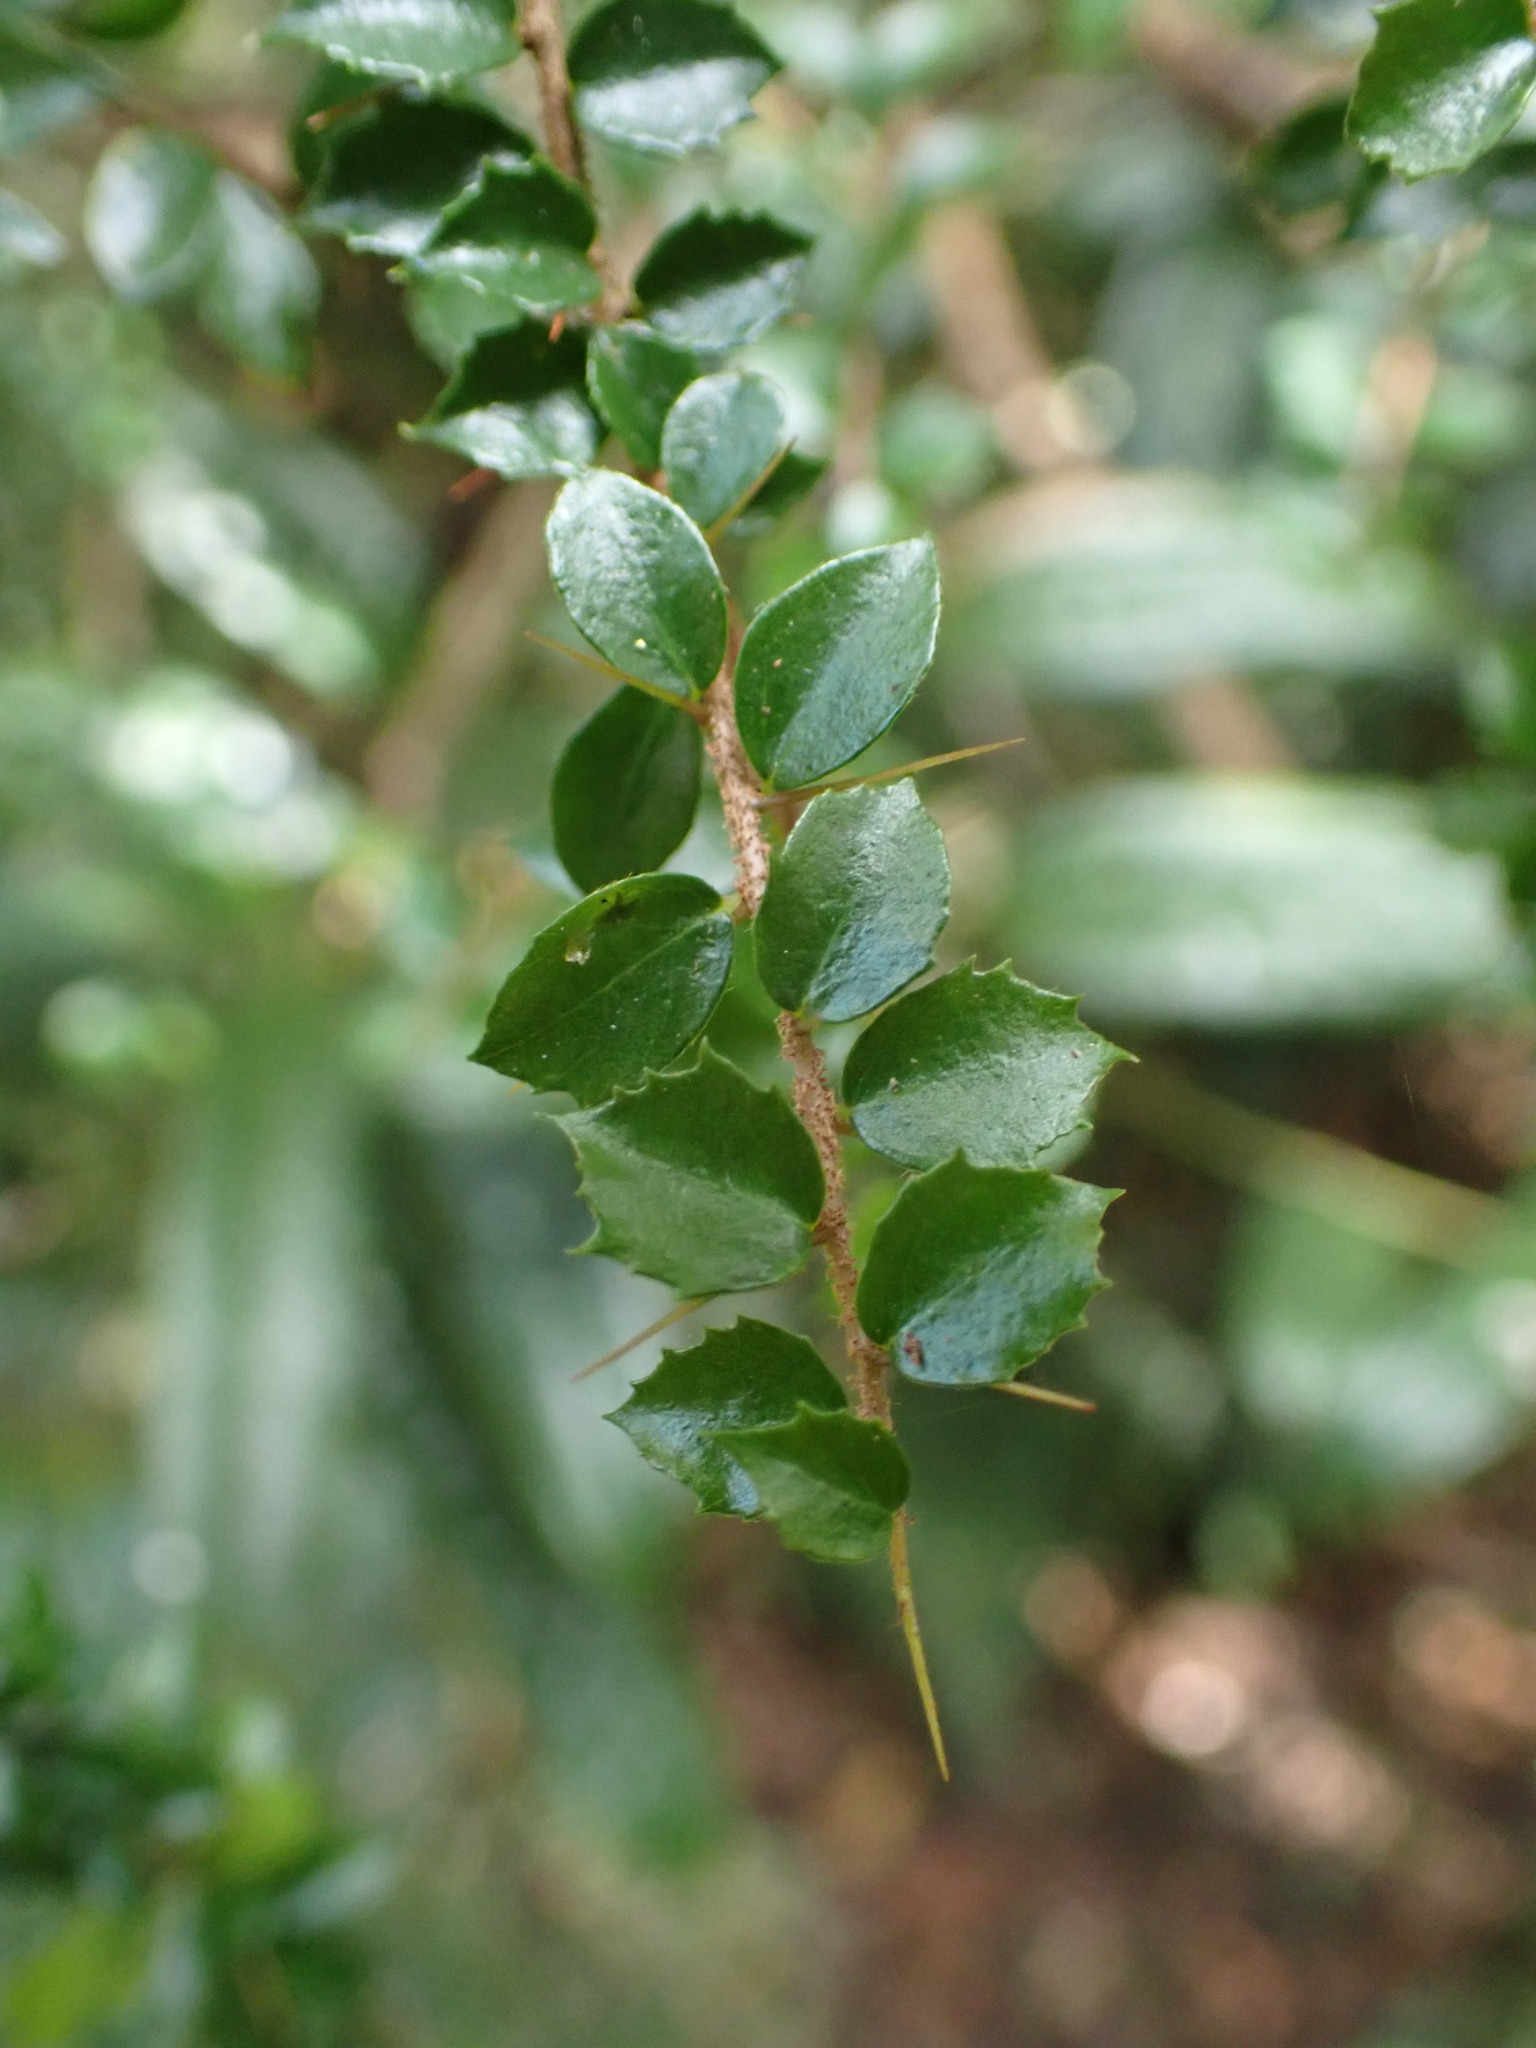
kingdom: Plantae
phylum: Tracheophyta
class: Magnoliopsida
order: Apiales
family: Pittosporaceae
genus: Pittosporum
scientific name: Pittosporum multiflorum
